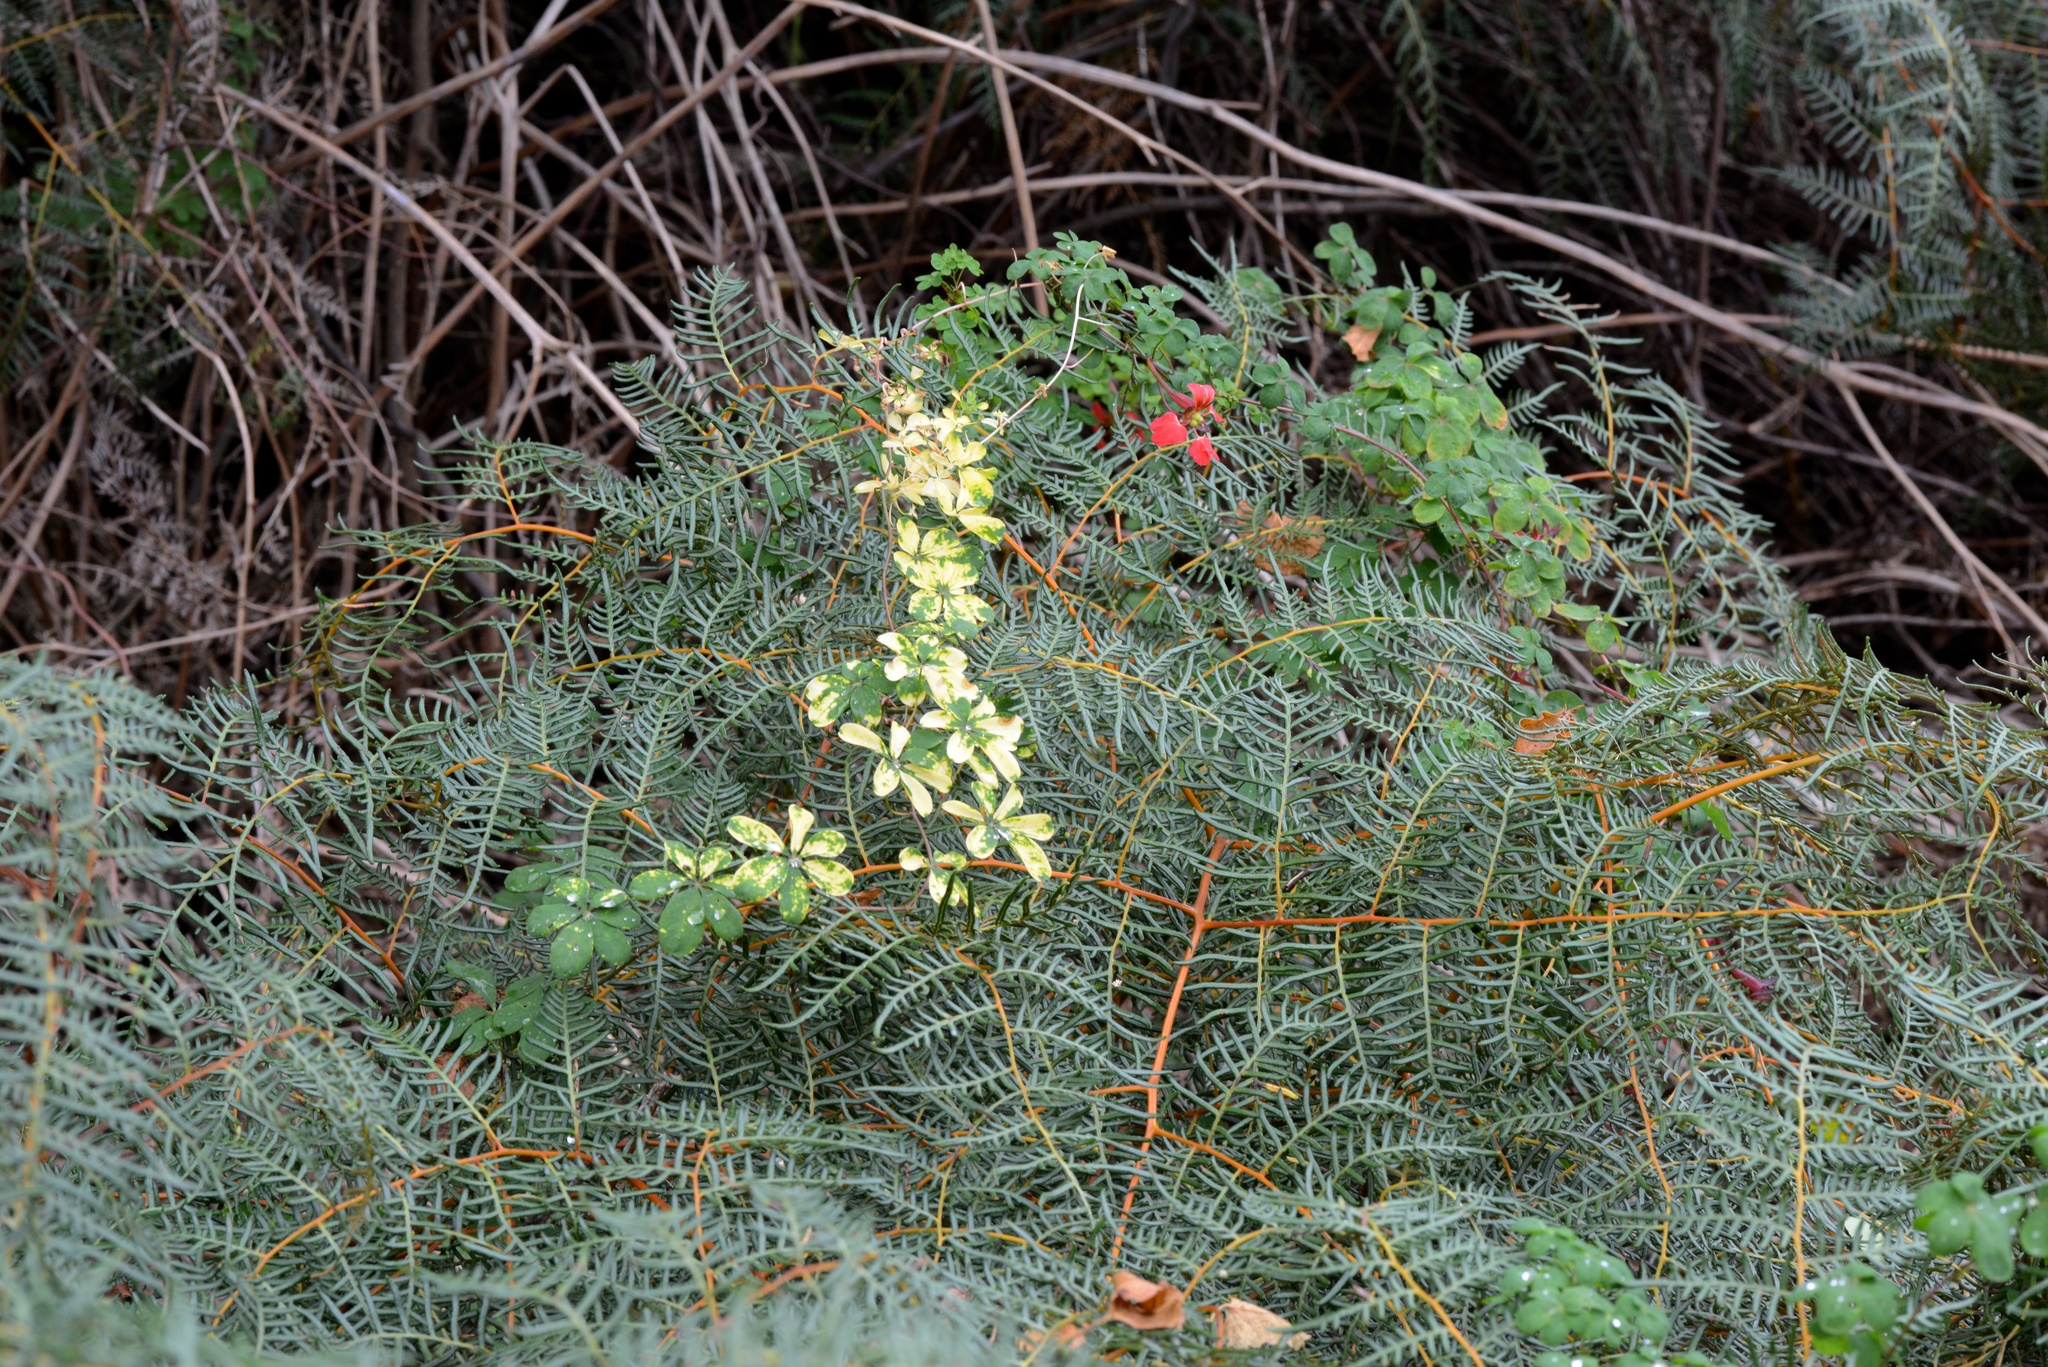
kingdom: Plantae
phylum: Tracheophyta
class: Magnoliopsida
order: Brassicales
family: Tropaeolaceae
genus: Tropaeolum
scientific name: Tropaeolum speciosum
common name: Flame nasturtium
